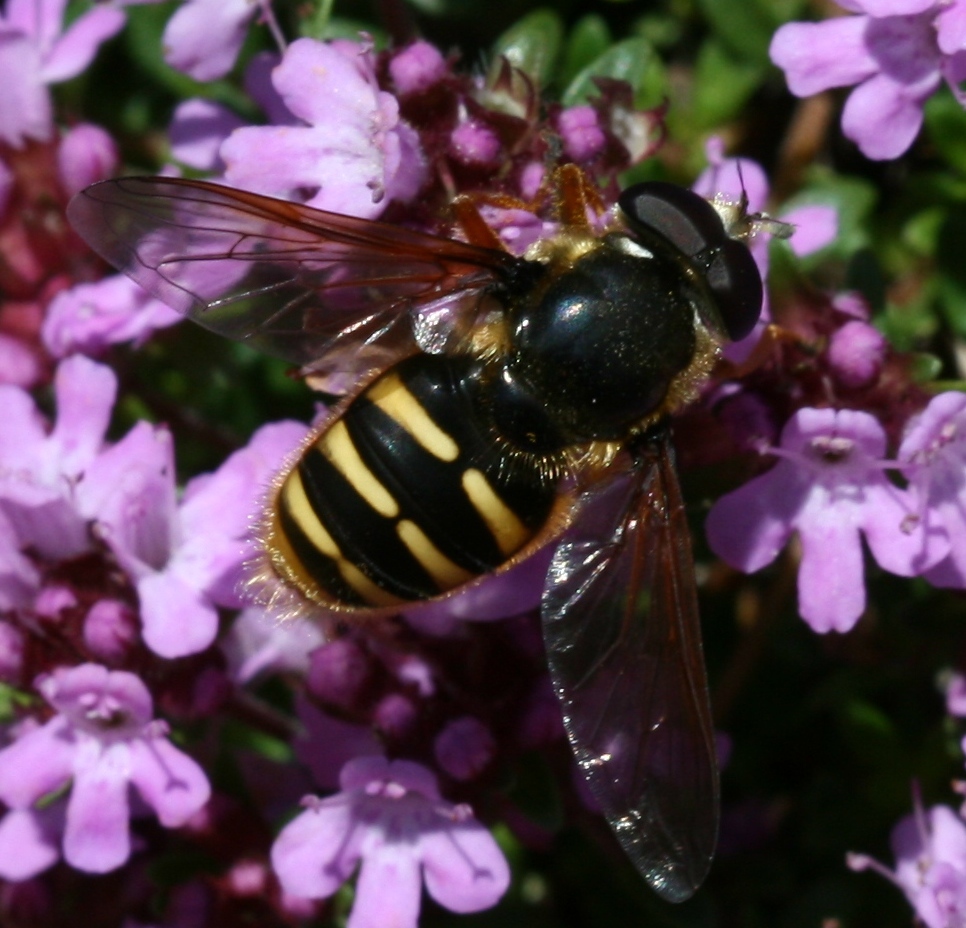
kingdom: Animalia
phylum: Arthropoda
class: Insecta
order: Diptera
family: Syrphidae
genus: Sericomyia
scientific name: Sericomyia silentis
